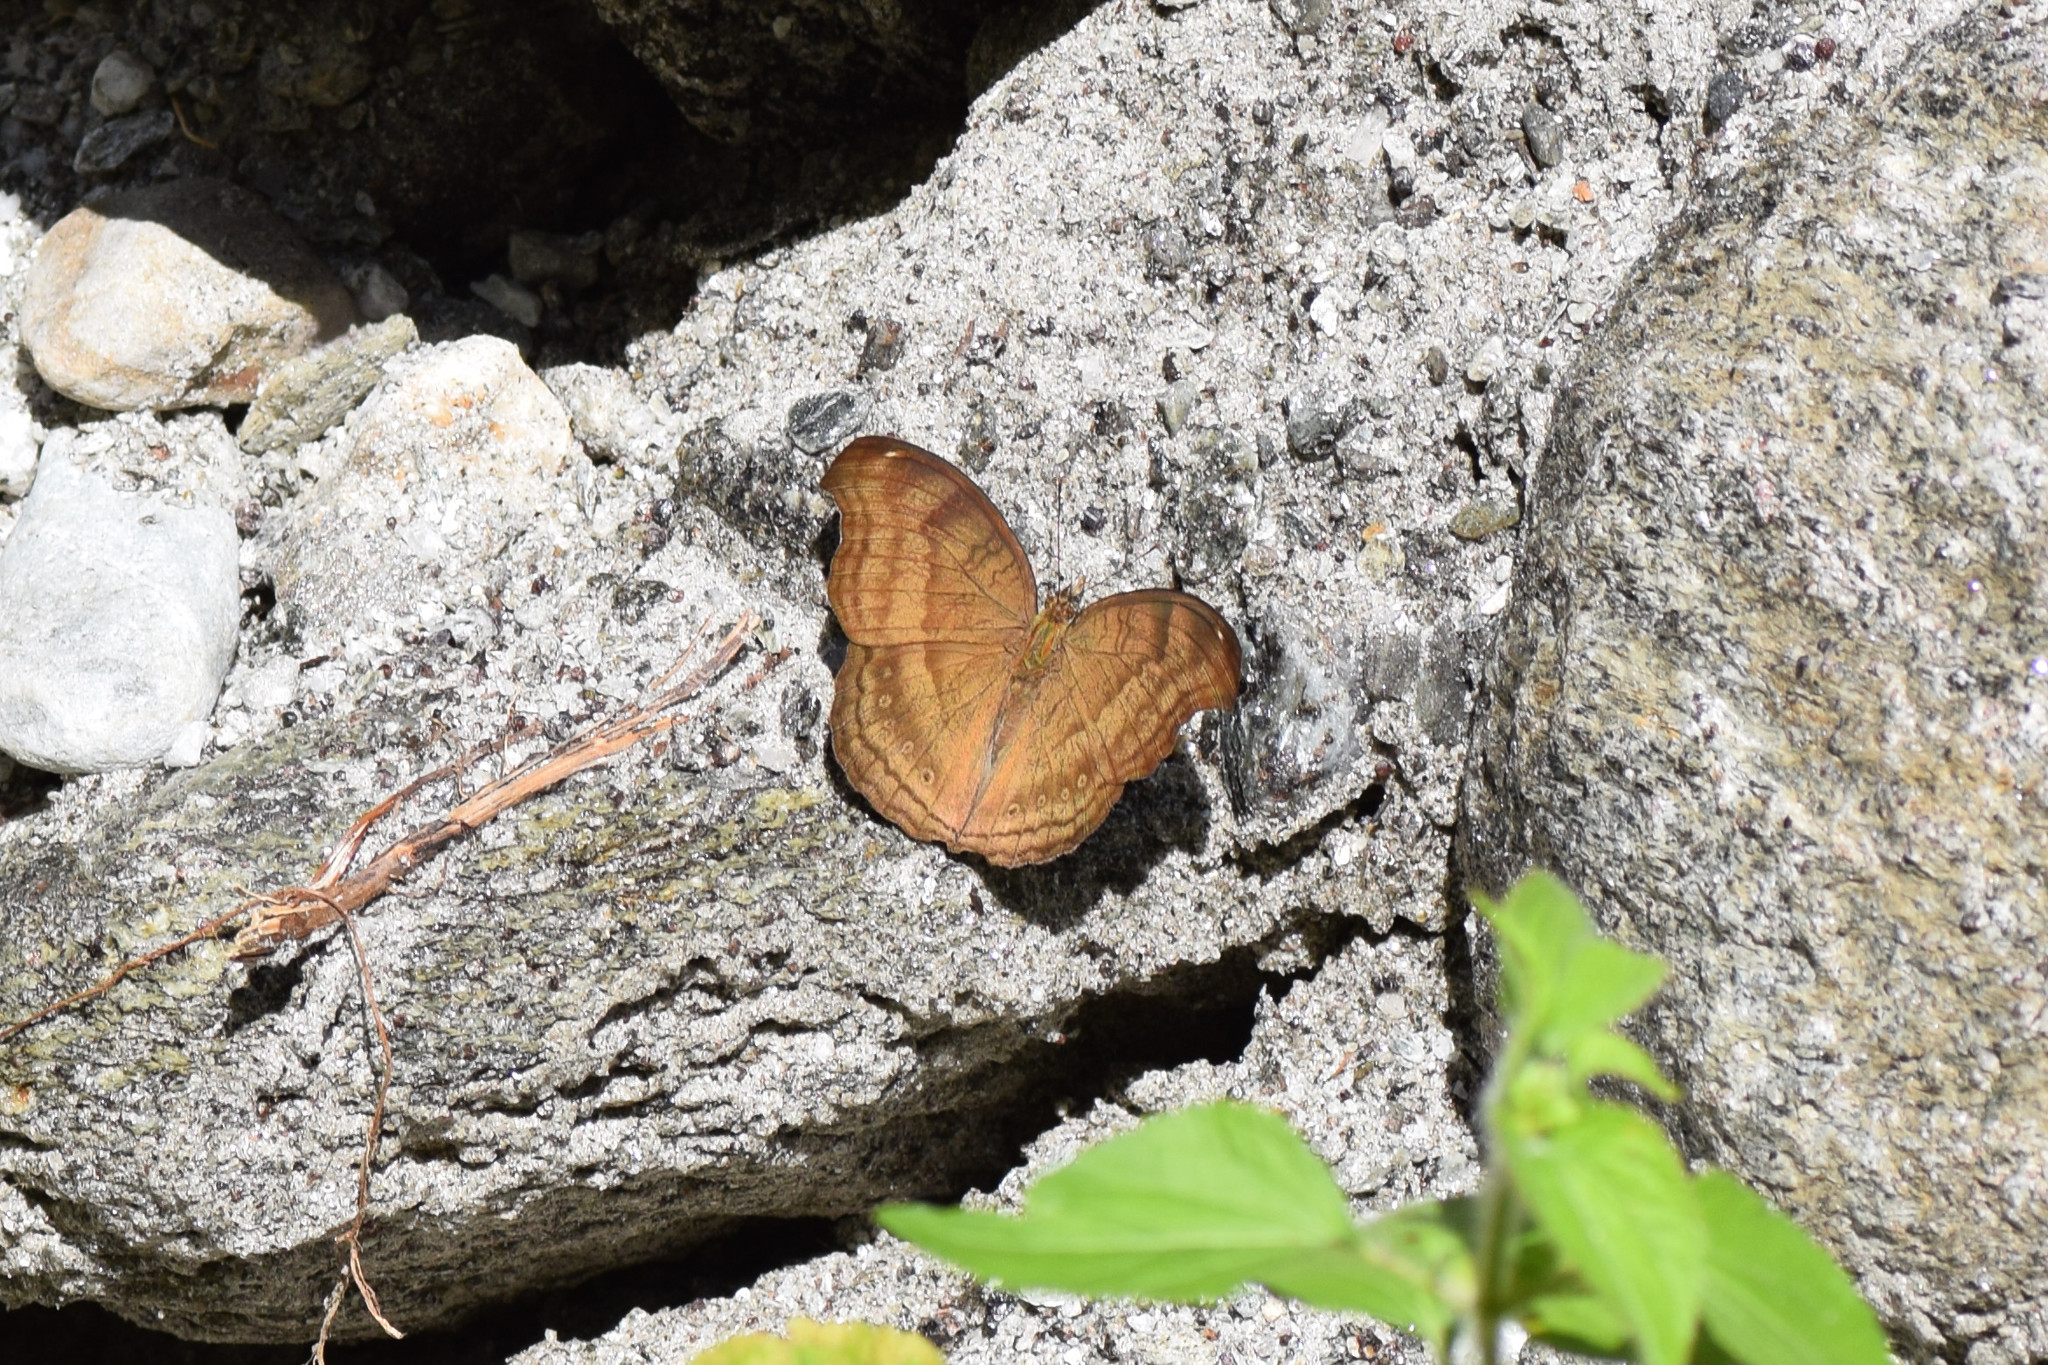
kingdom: Animalia
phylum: Arthropoda
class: Insecta
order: Lepidoptera
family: Nymphalidae
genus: Junonia
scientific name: Junonia iphita
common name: Chocolate pansy
